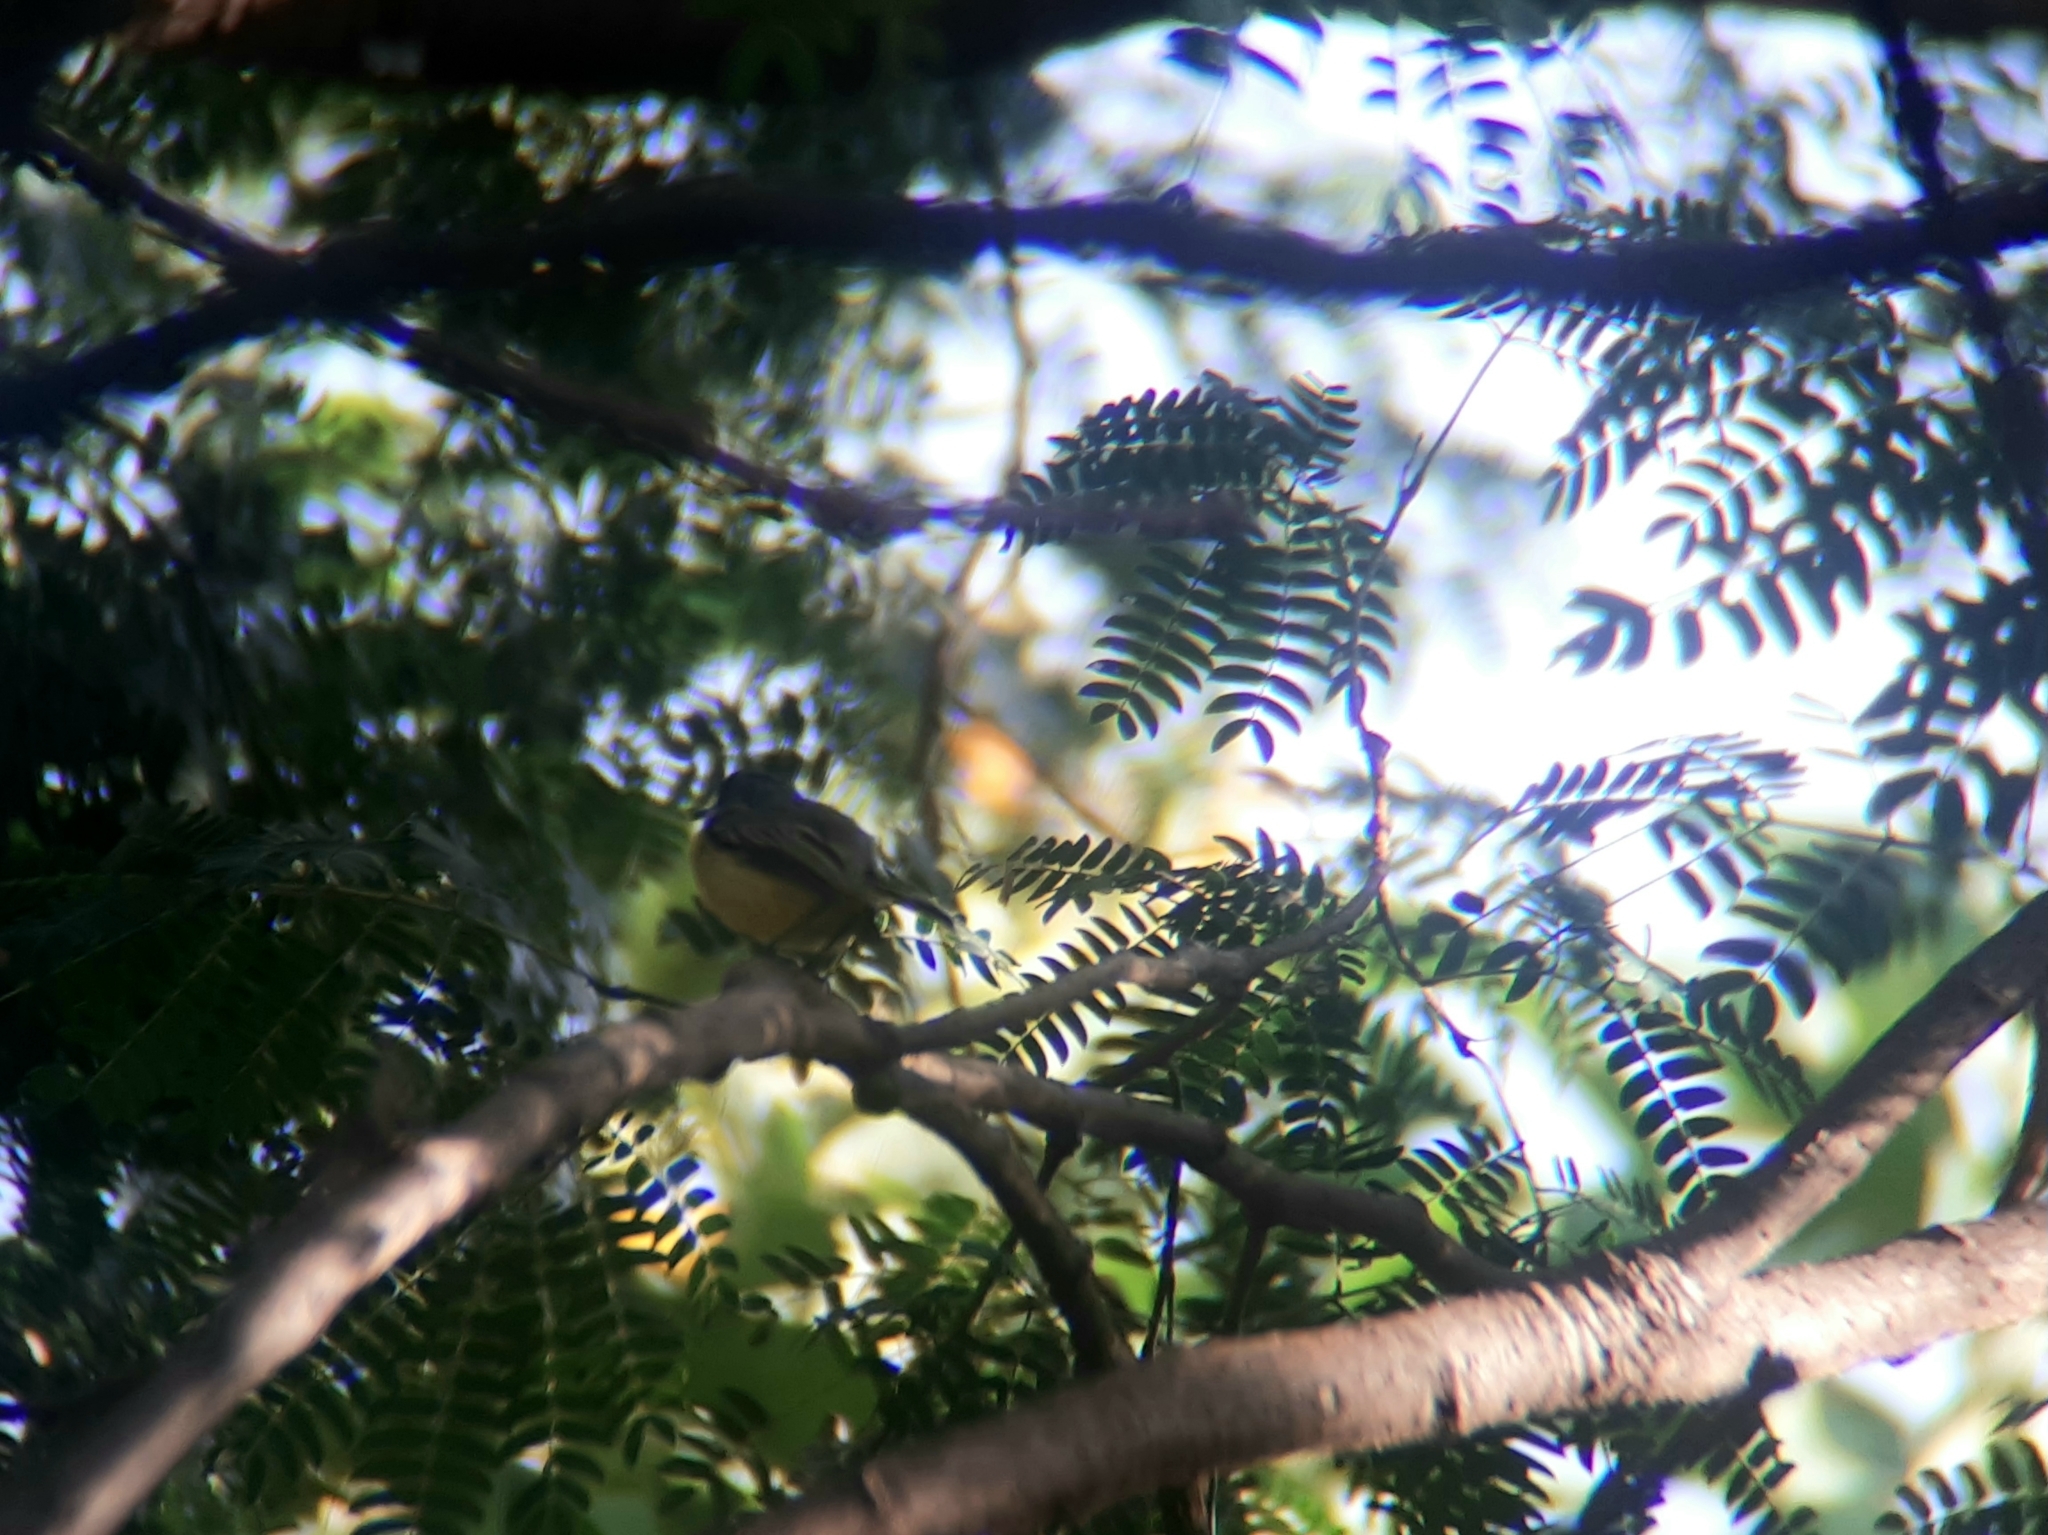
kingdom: Animalia
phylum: Chordata
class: Aves
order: Passeriformes
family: Tyrannidae
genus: Todirostrum
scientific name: Todirostrum cinereum
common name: Common tody-flycatcher
